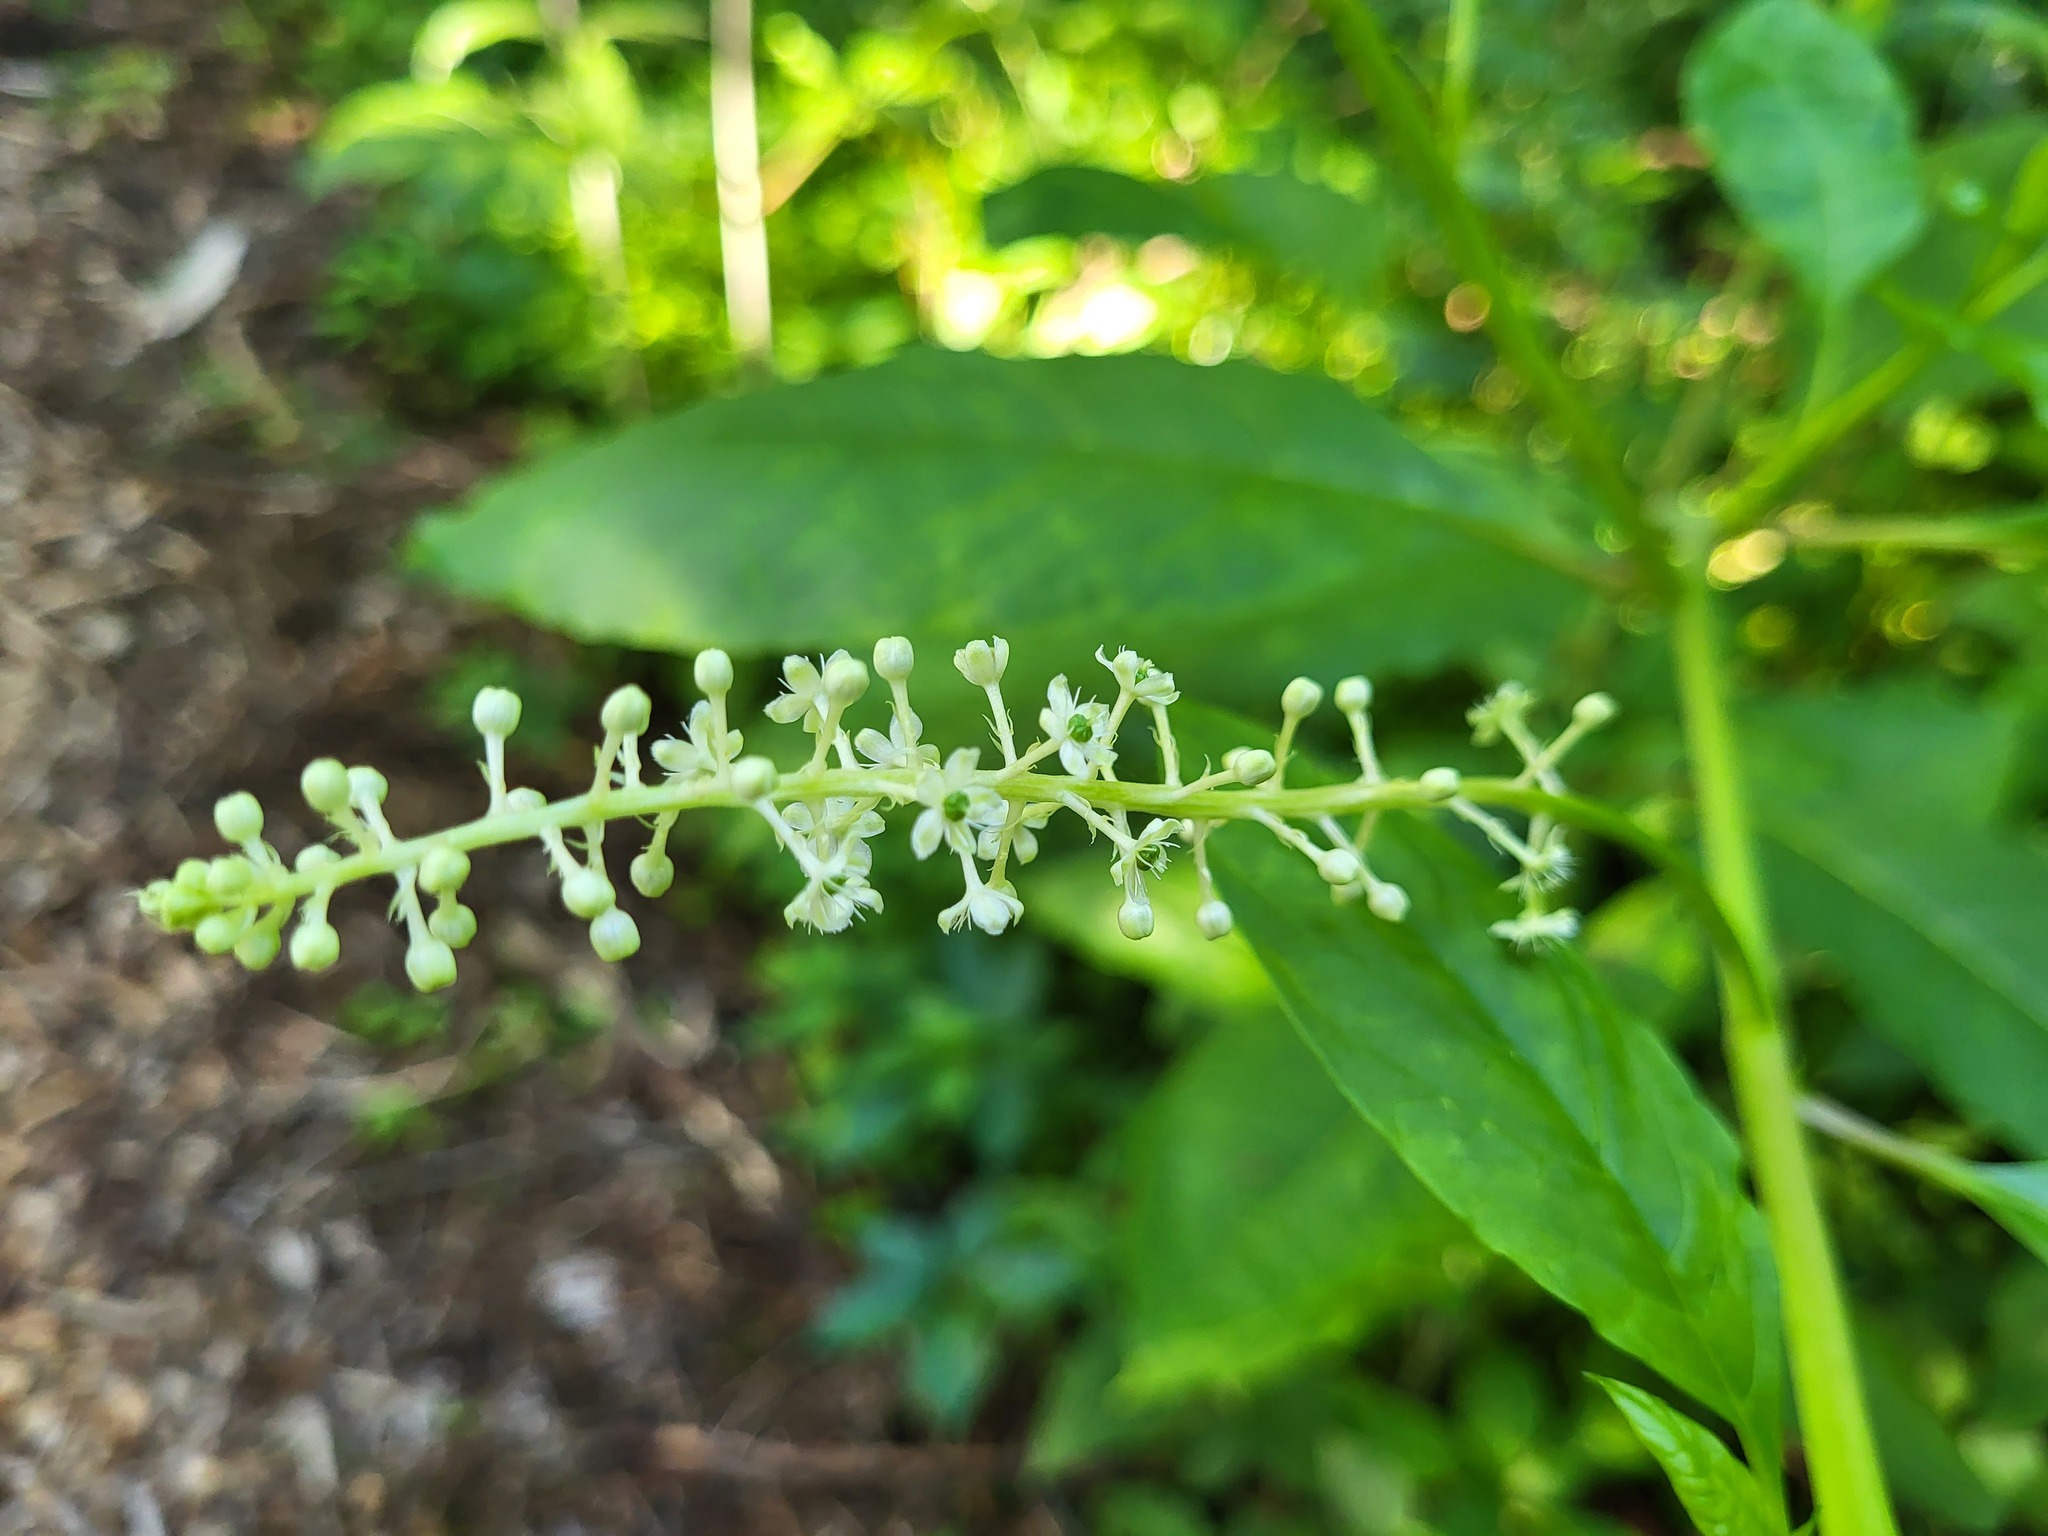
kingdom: Plantae
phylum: Tracheophyta
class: Magnoliopsida
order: Caryophyllales
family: Phytolaccaceae
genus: Phytolacca
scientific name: Phytolacca americana
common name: American pokeweed
